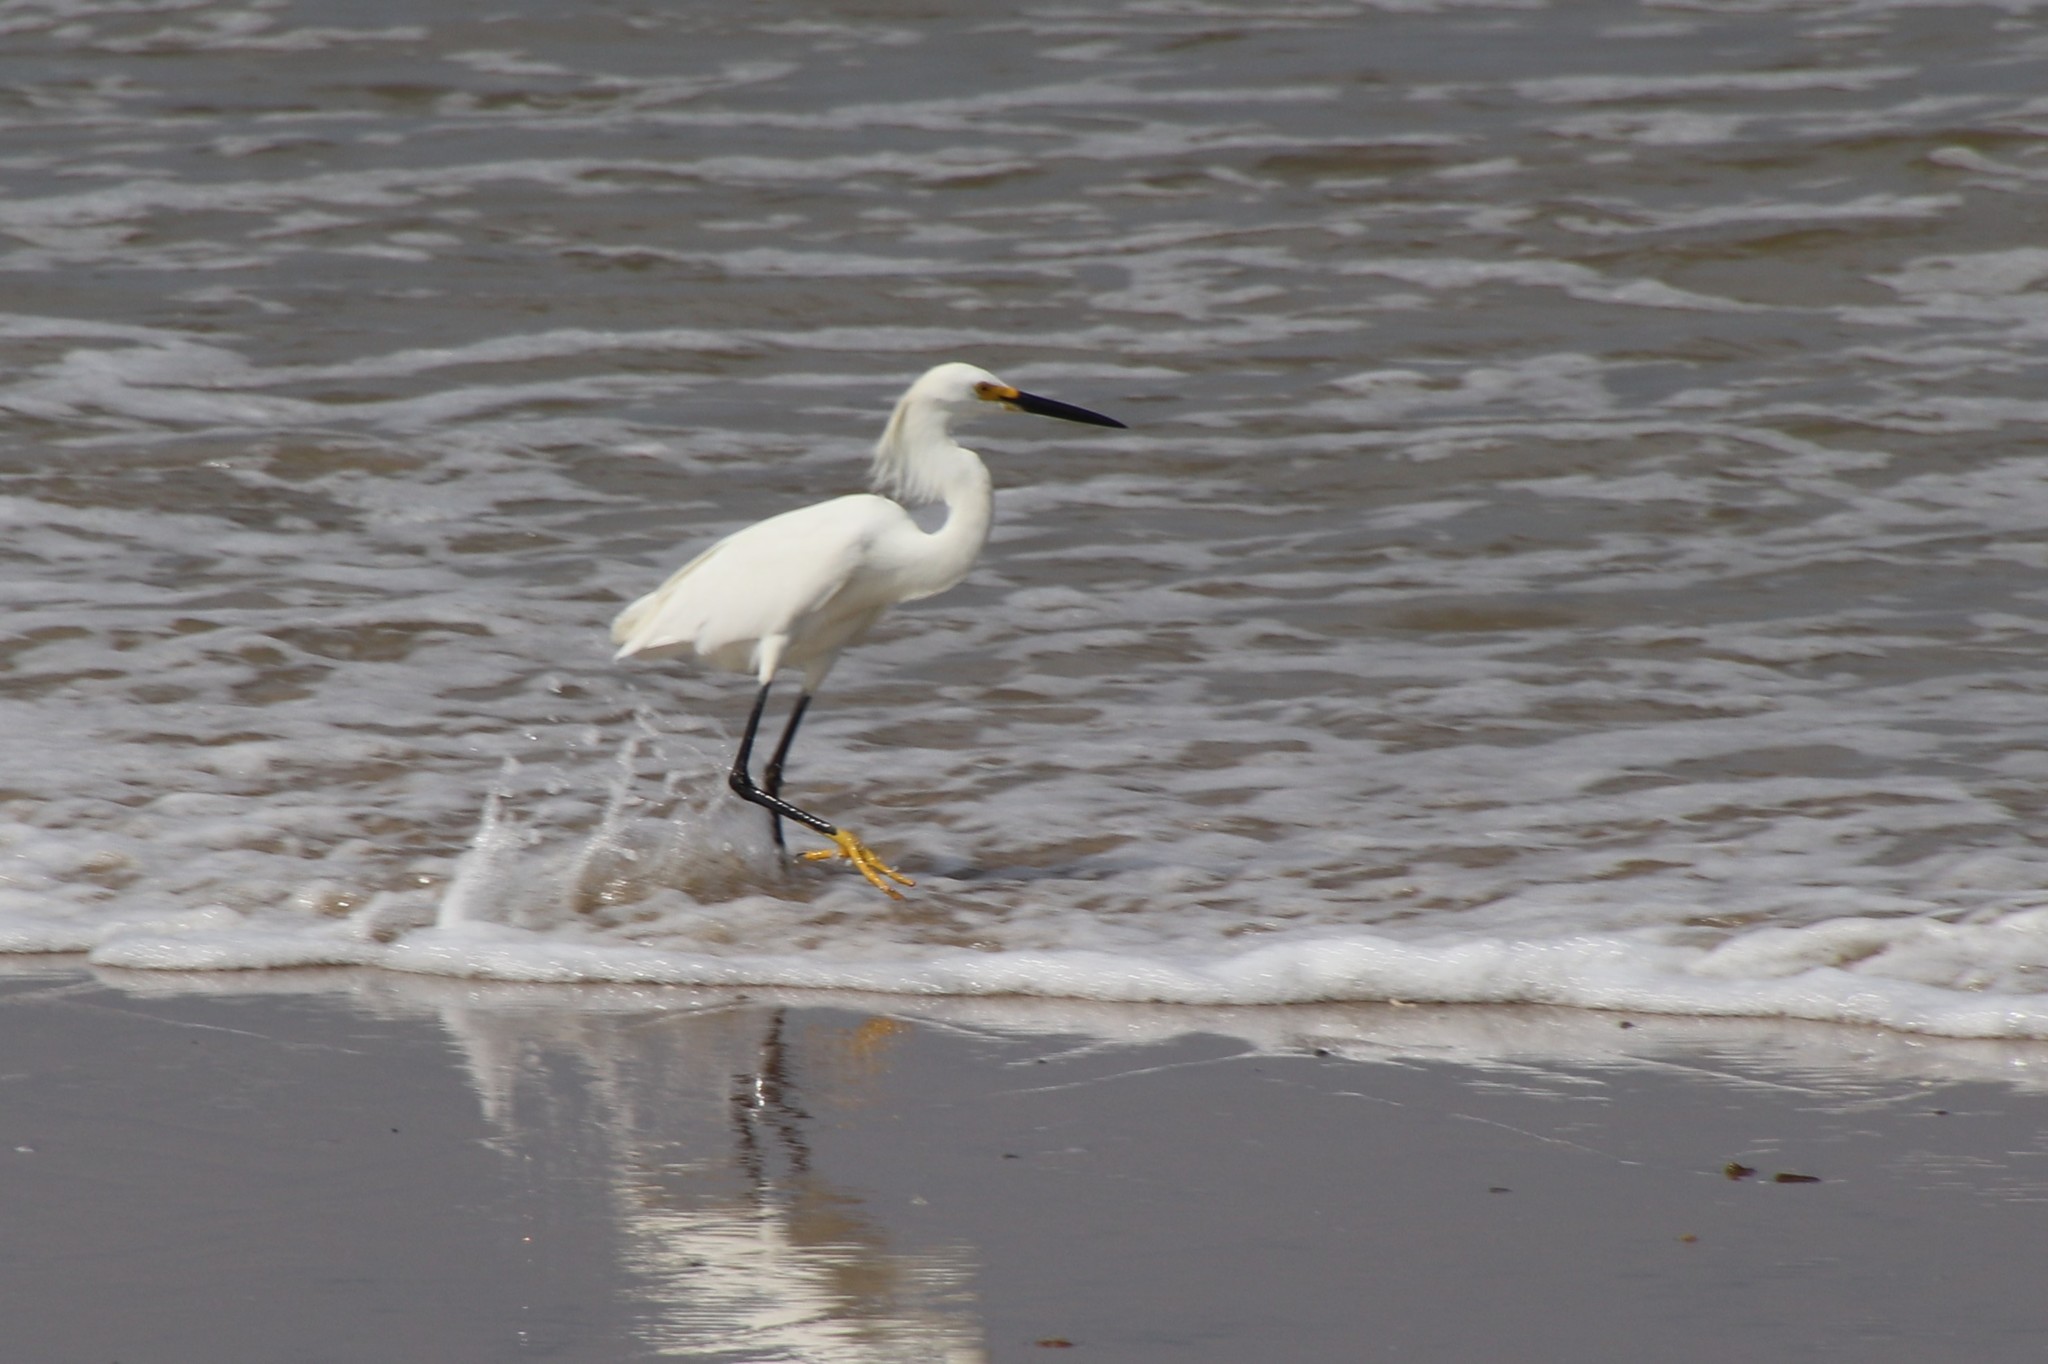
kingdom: Animalia
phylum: Chordata
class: Aves
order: Pelecaniformes
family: Ardeidae
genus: Egretta
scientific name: Egretta thula
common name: Snowy egret
